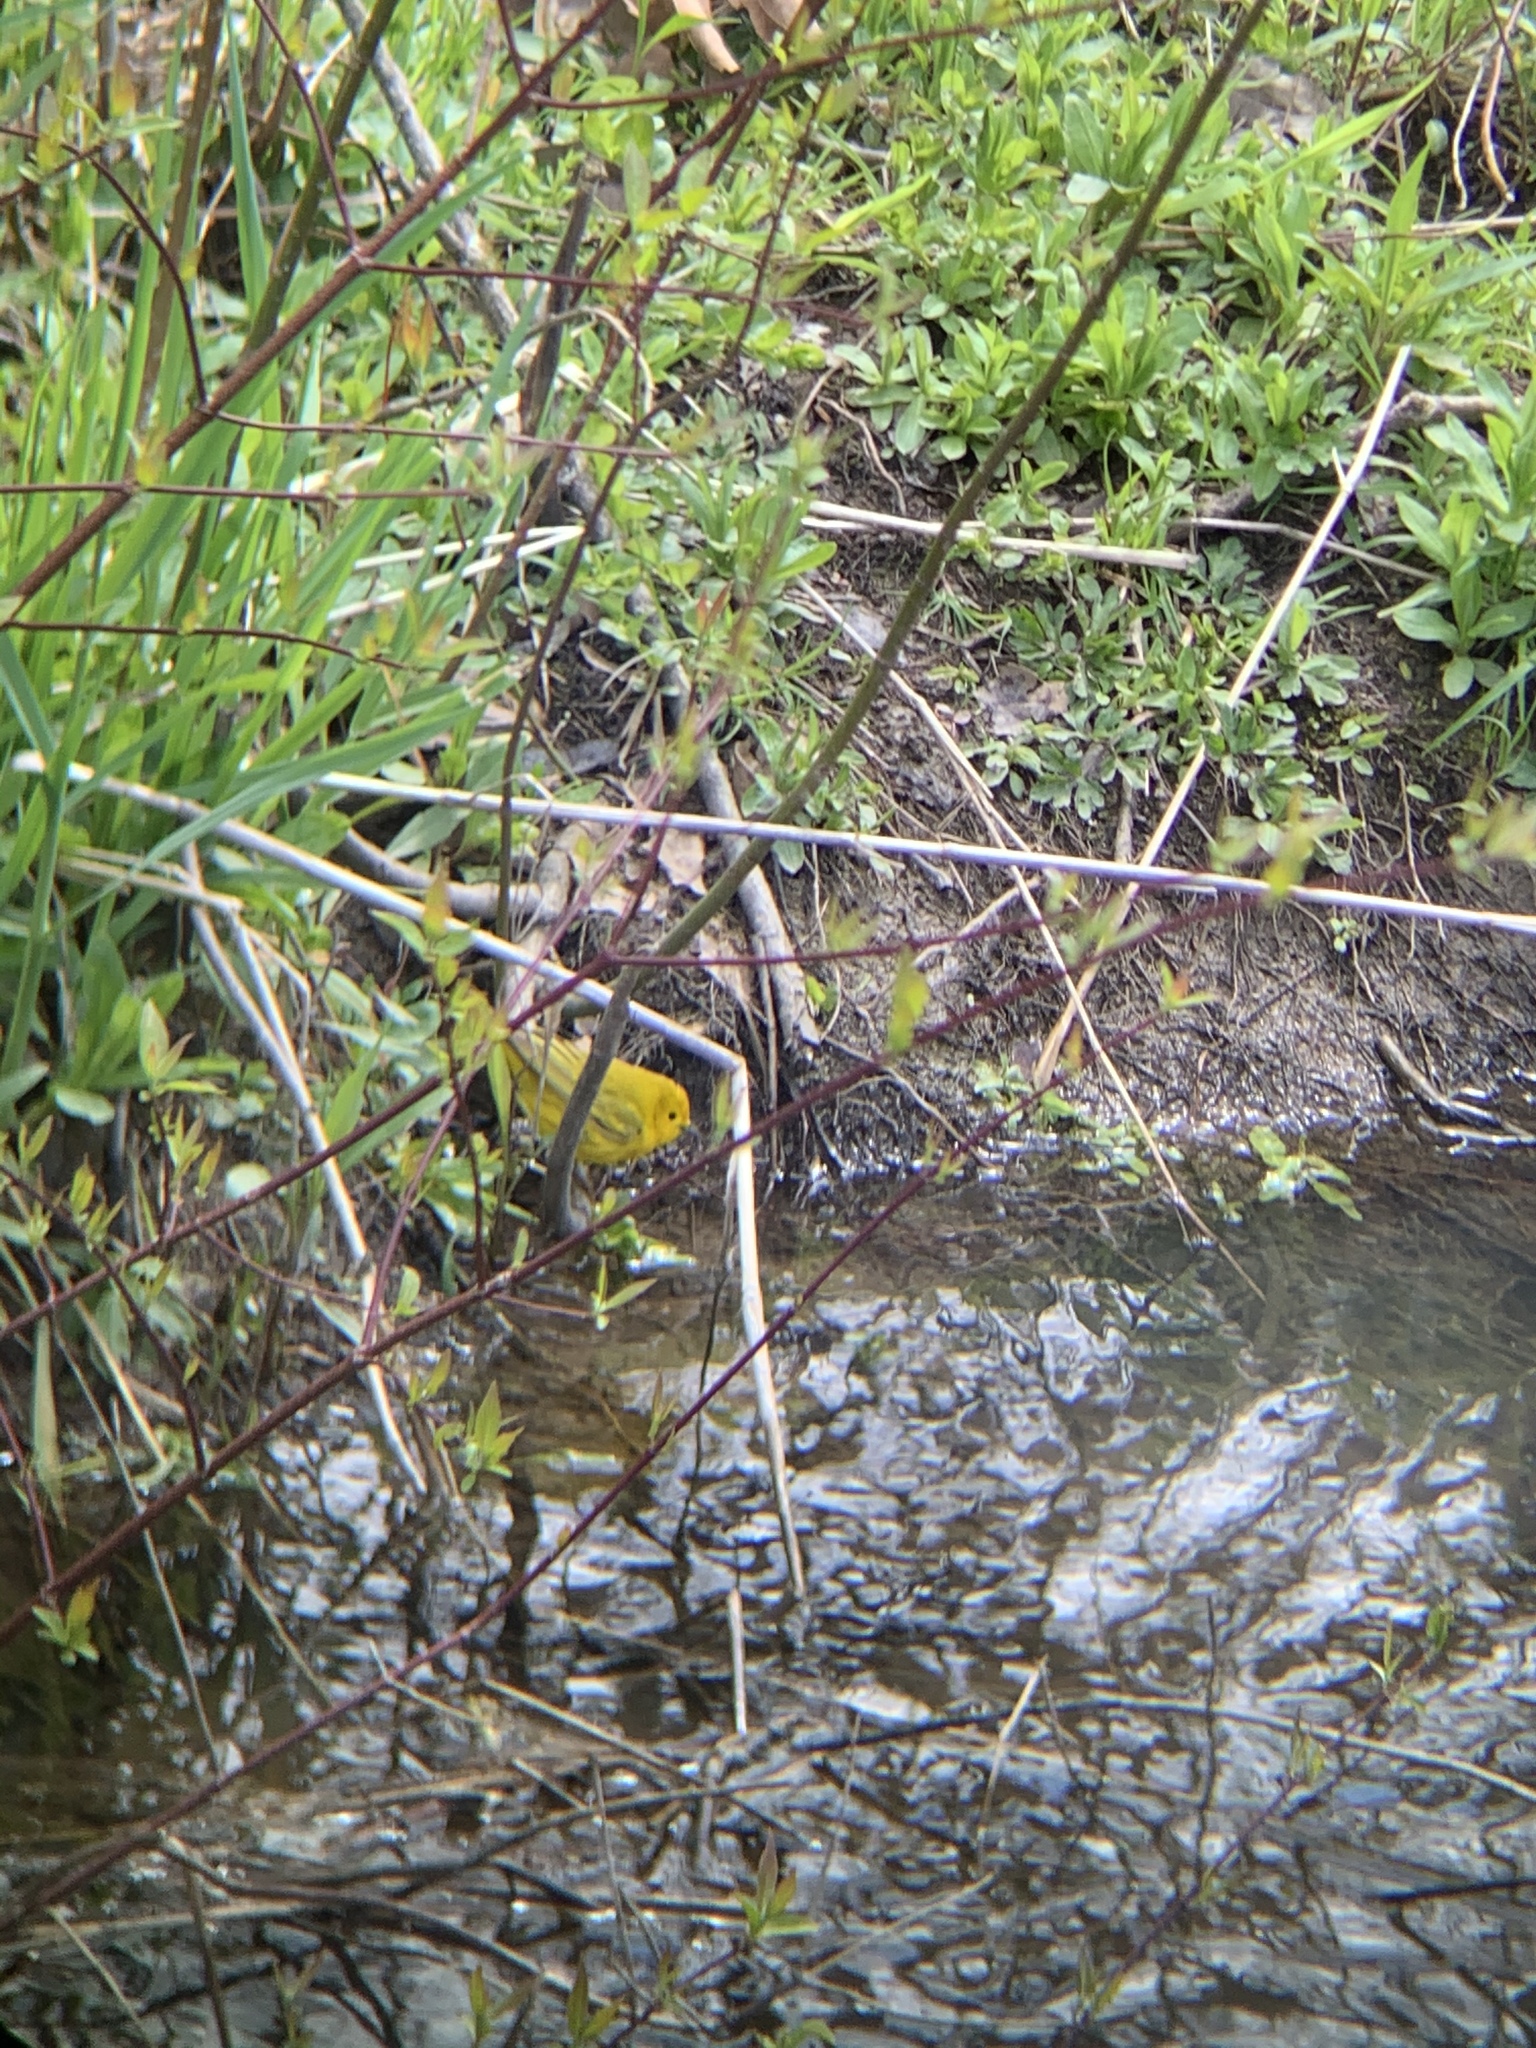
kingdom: Animalia
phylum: Chordata
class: Aves
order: Passeriformes
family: Parulidae
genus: Setophaga
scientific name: Setophaga petechia
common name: Yellow warbler
